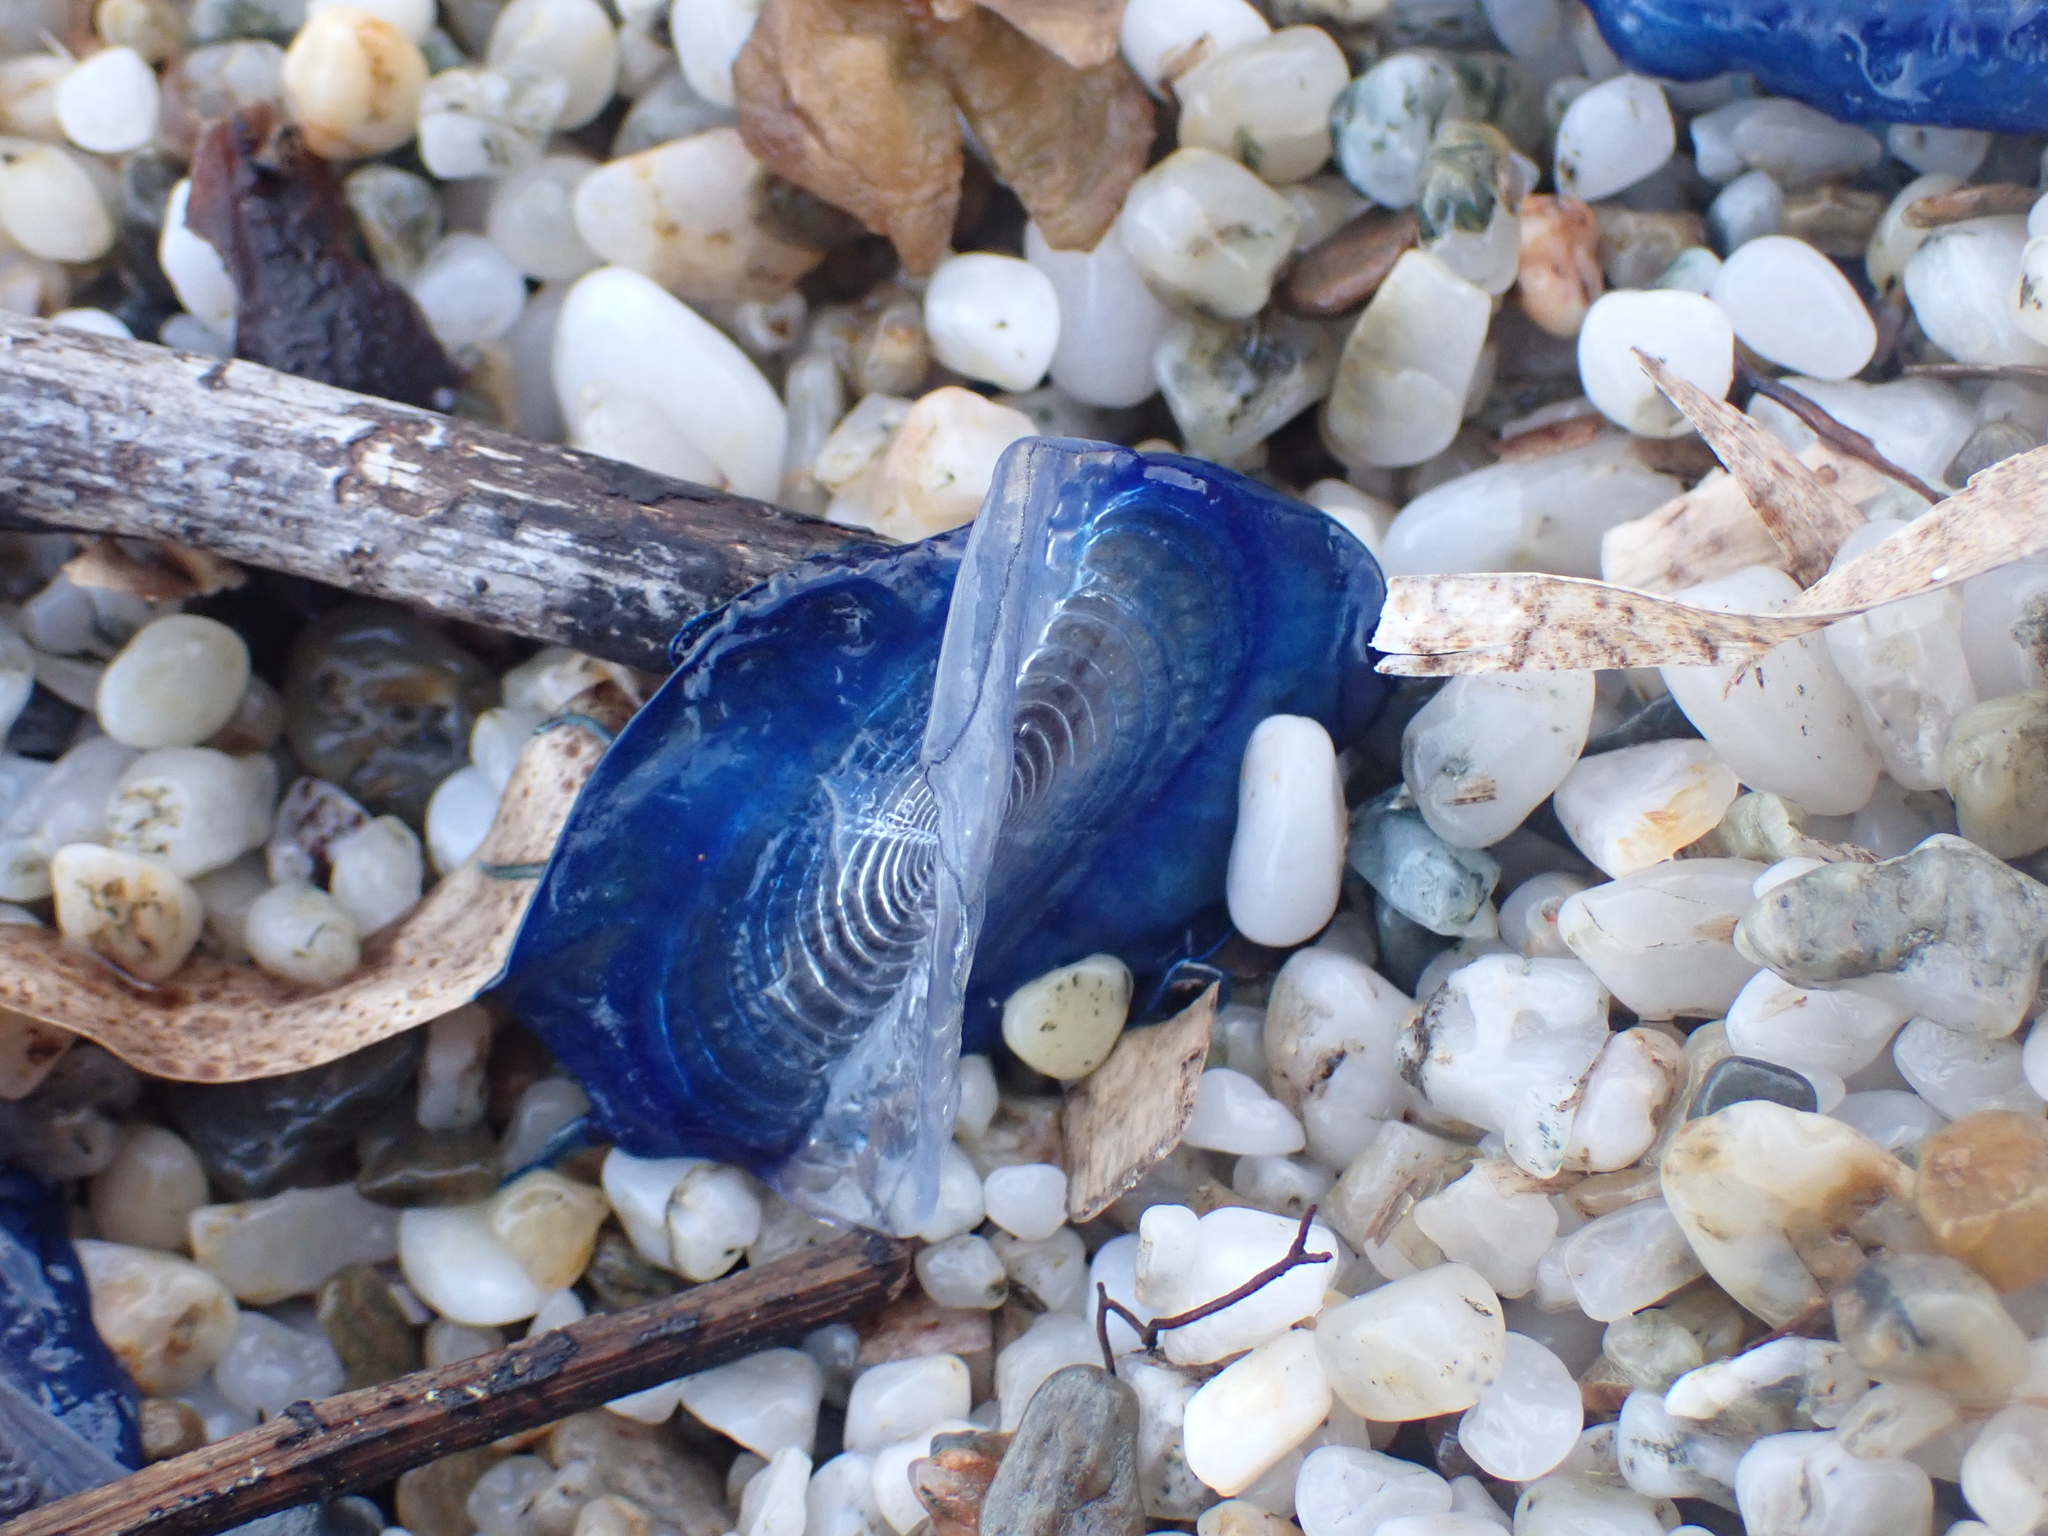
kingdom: Animalia
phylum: Cnidaria
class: Hydrozoa
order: Anthoathecata
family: Porpitidae
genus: Velella
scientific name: Velella velella
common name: By-the-wind-sailor
